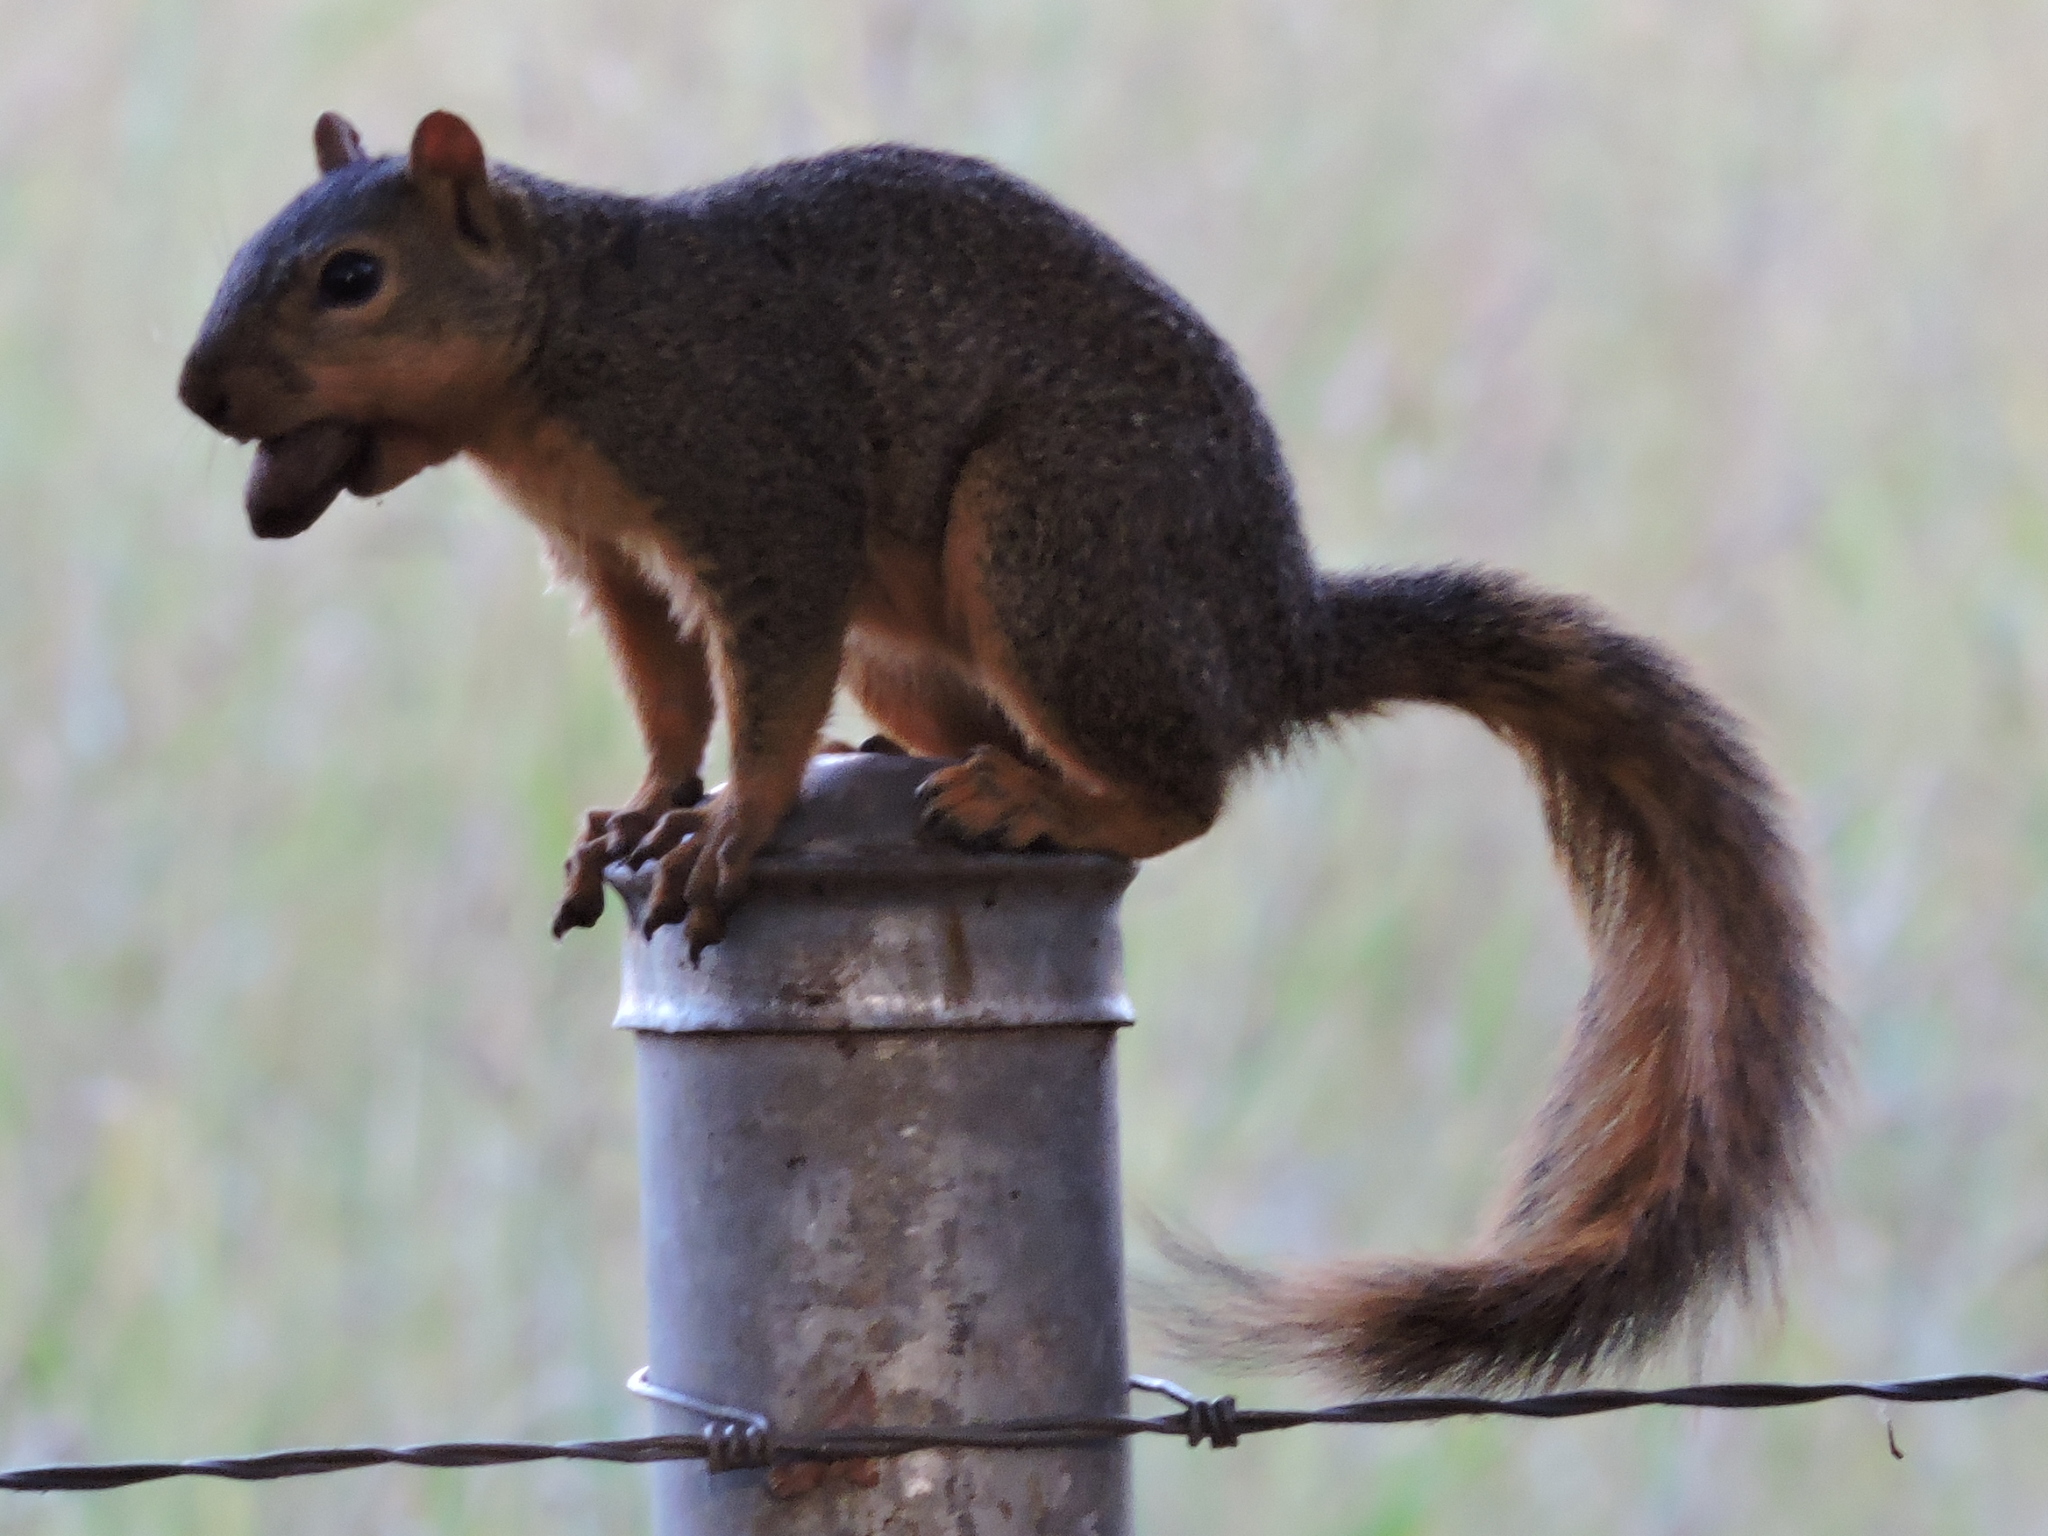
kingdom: Animalia
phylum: Chordata
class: Mammalia
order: Rodentia
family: Sciuridae
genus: Sciurus
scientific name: Sciurus niger
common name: Fox squirrel
